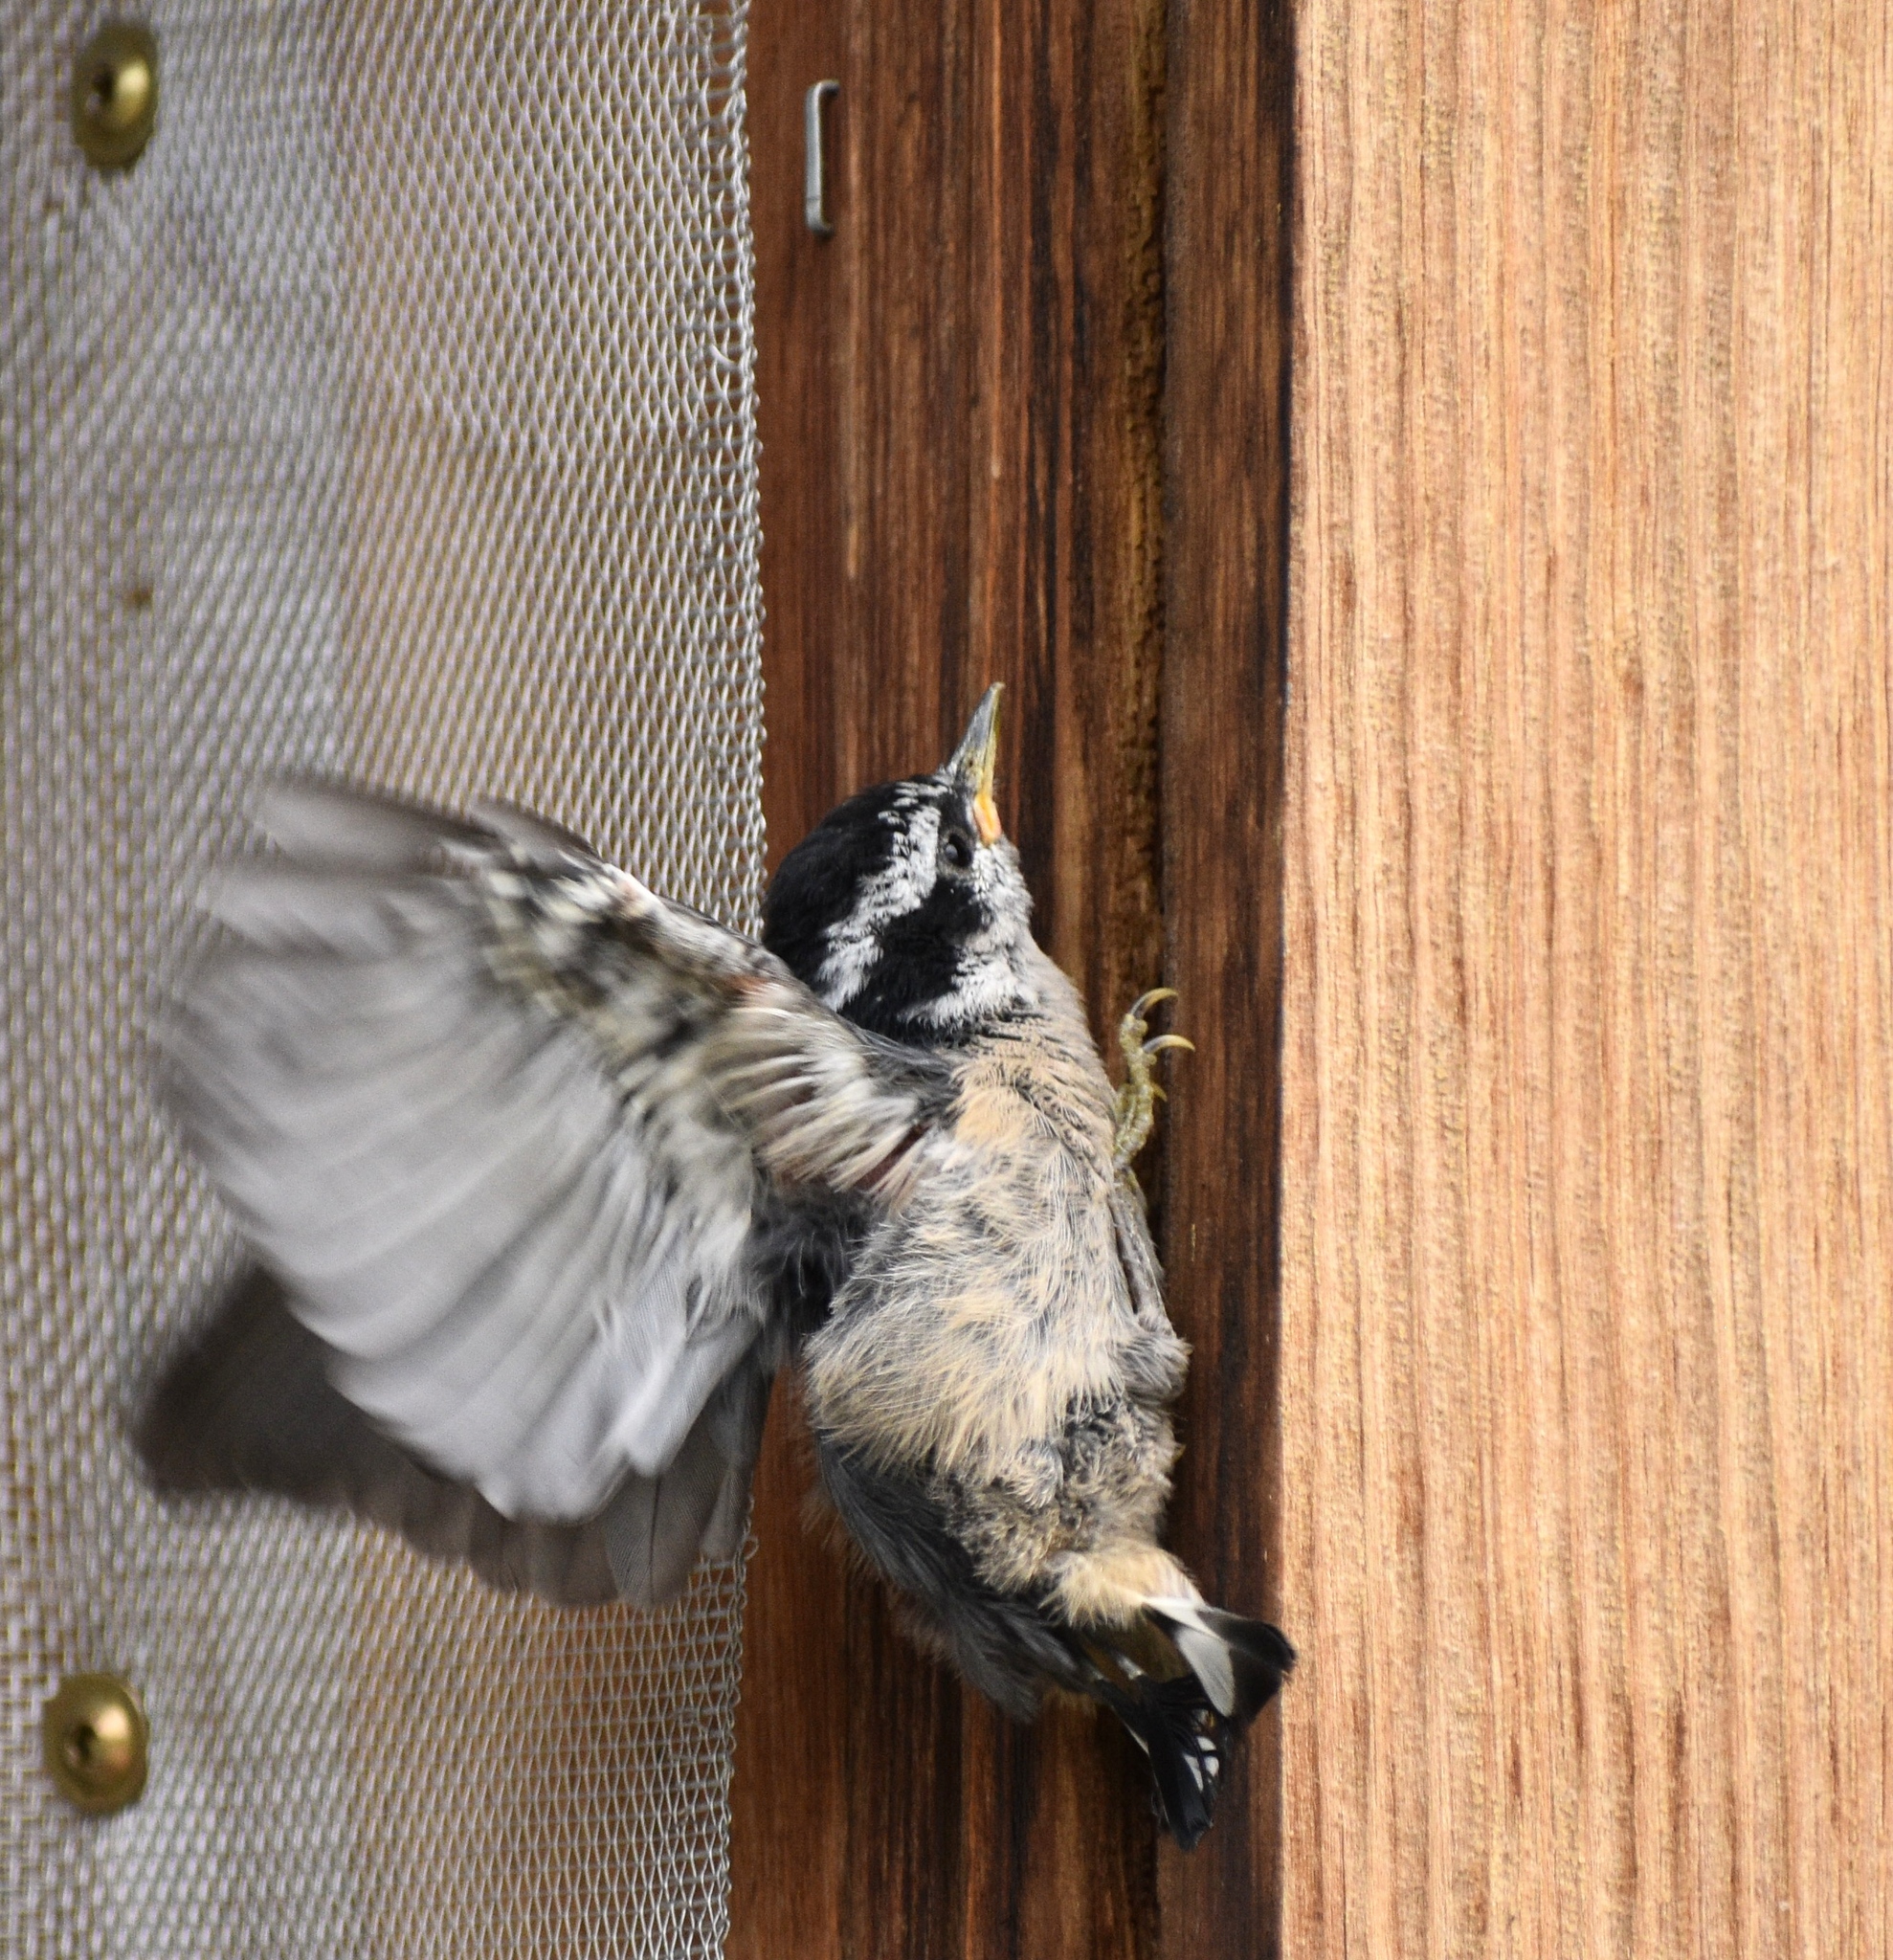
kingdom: Animalia
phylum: Chordata
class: Aves
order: Passeriformes
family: Sittidae
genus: Sitta
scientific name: Sitta canadensis
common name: Red-breasted nuthatch
